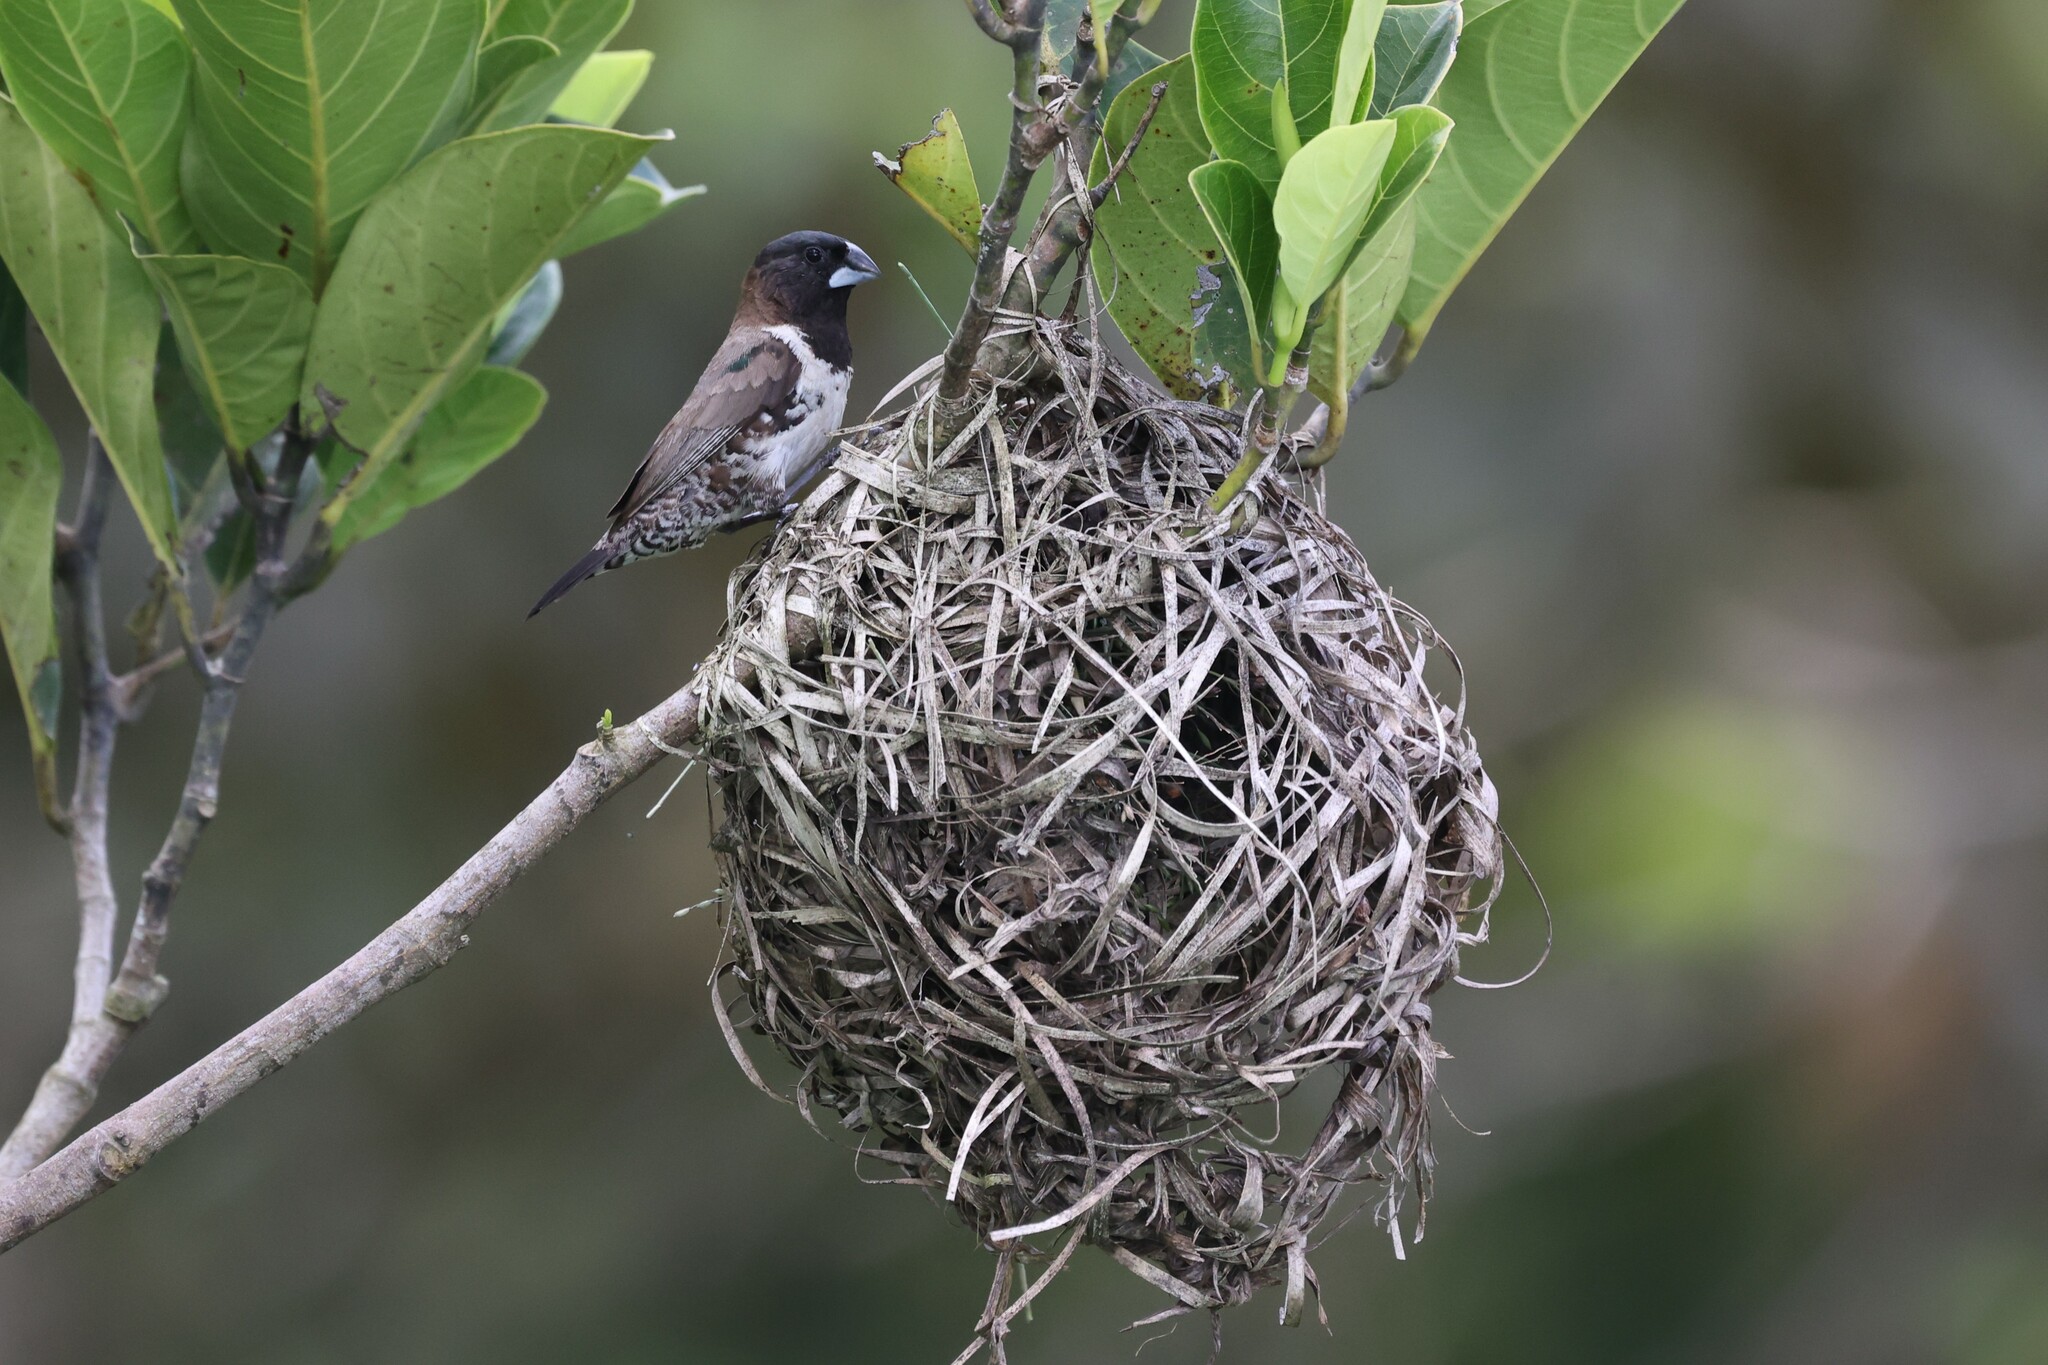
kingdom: Animalia
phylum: Chordata
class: Aves
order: Passeriformes
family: Estrildidae
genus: Lonchura
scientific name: Lonchura cucullata
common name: Bronze mannikin
